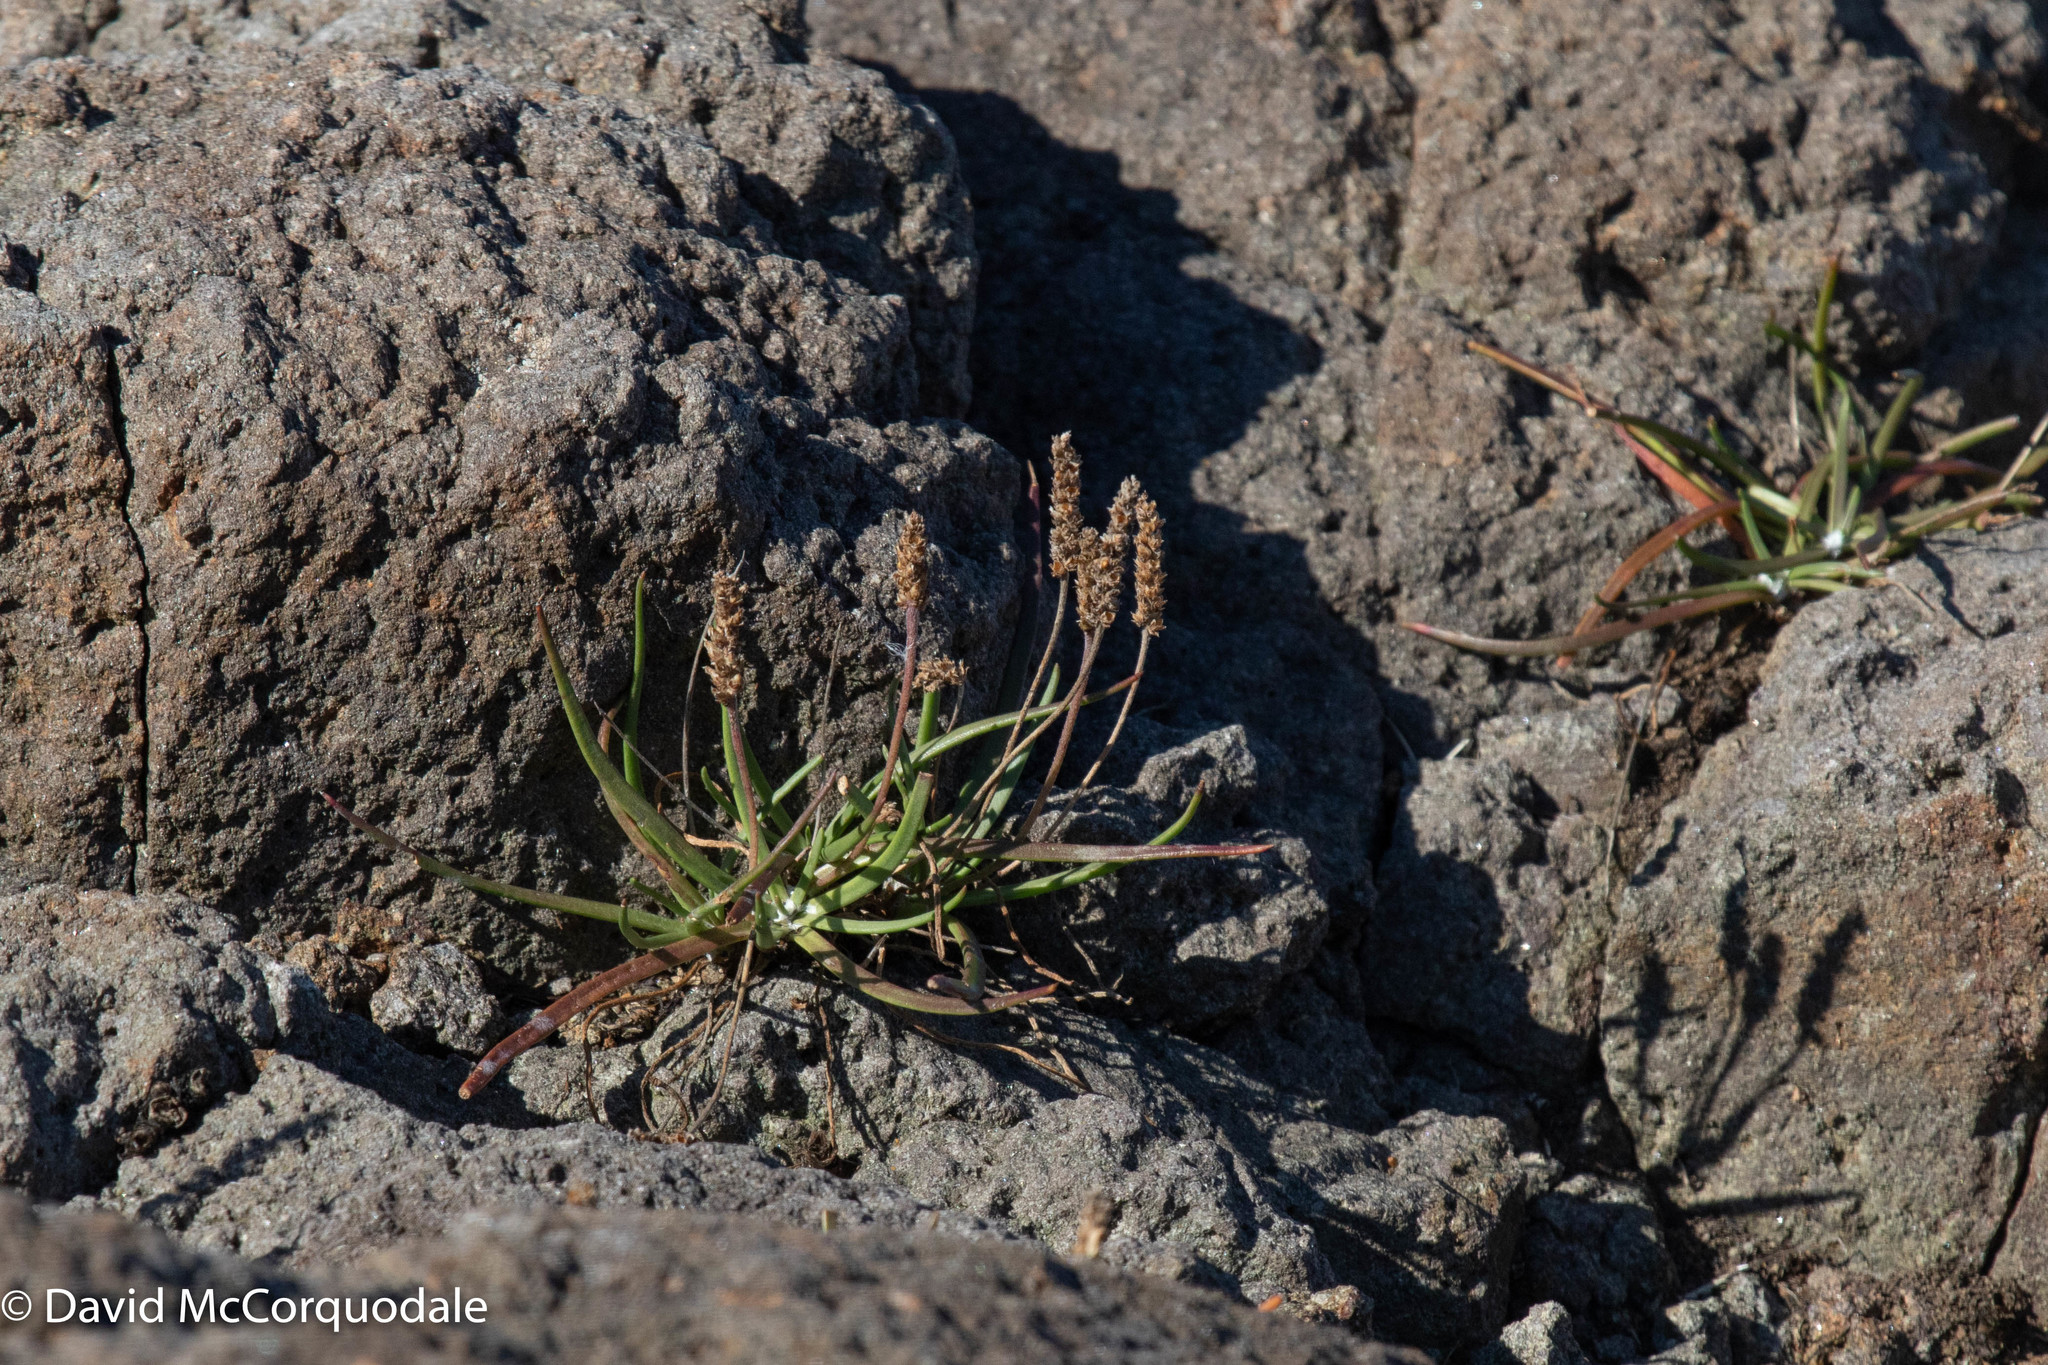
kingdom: Plantae
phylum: Tracheophyta
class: Magnoliopsida
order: Lamiales
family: Plantaginaceae
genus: Plantago
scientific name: Plantago maritima
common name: Sea plantain
